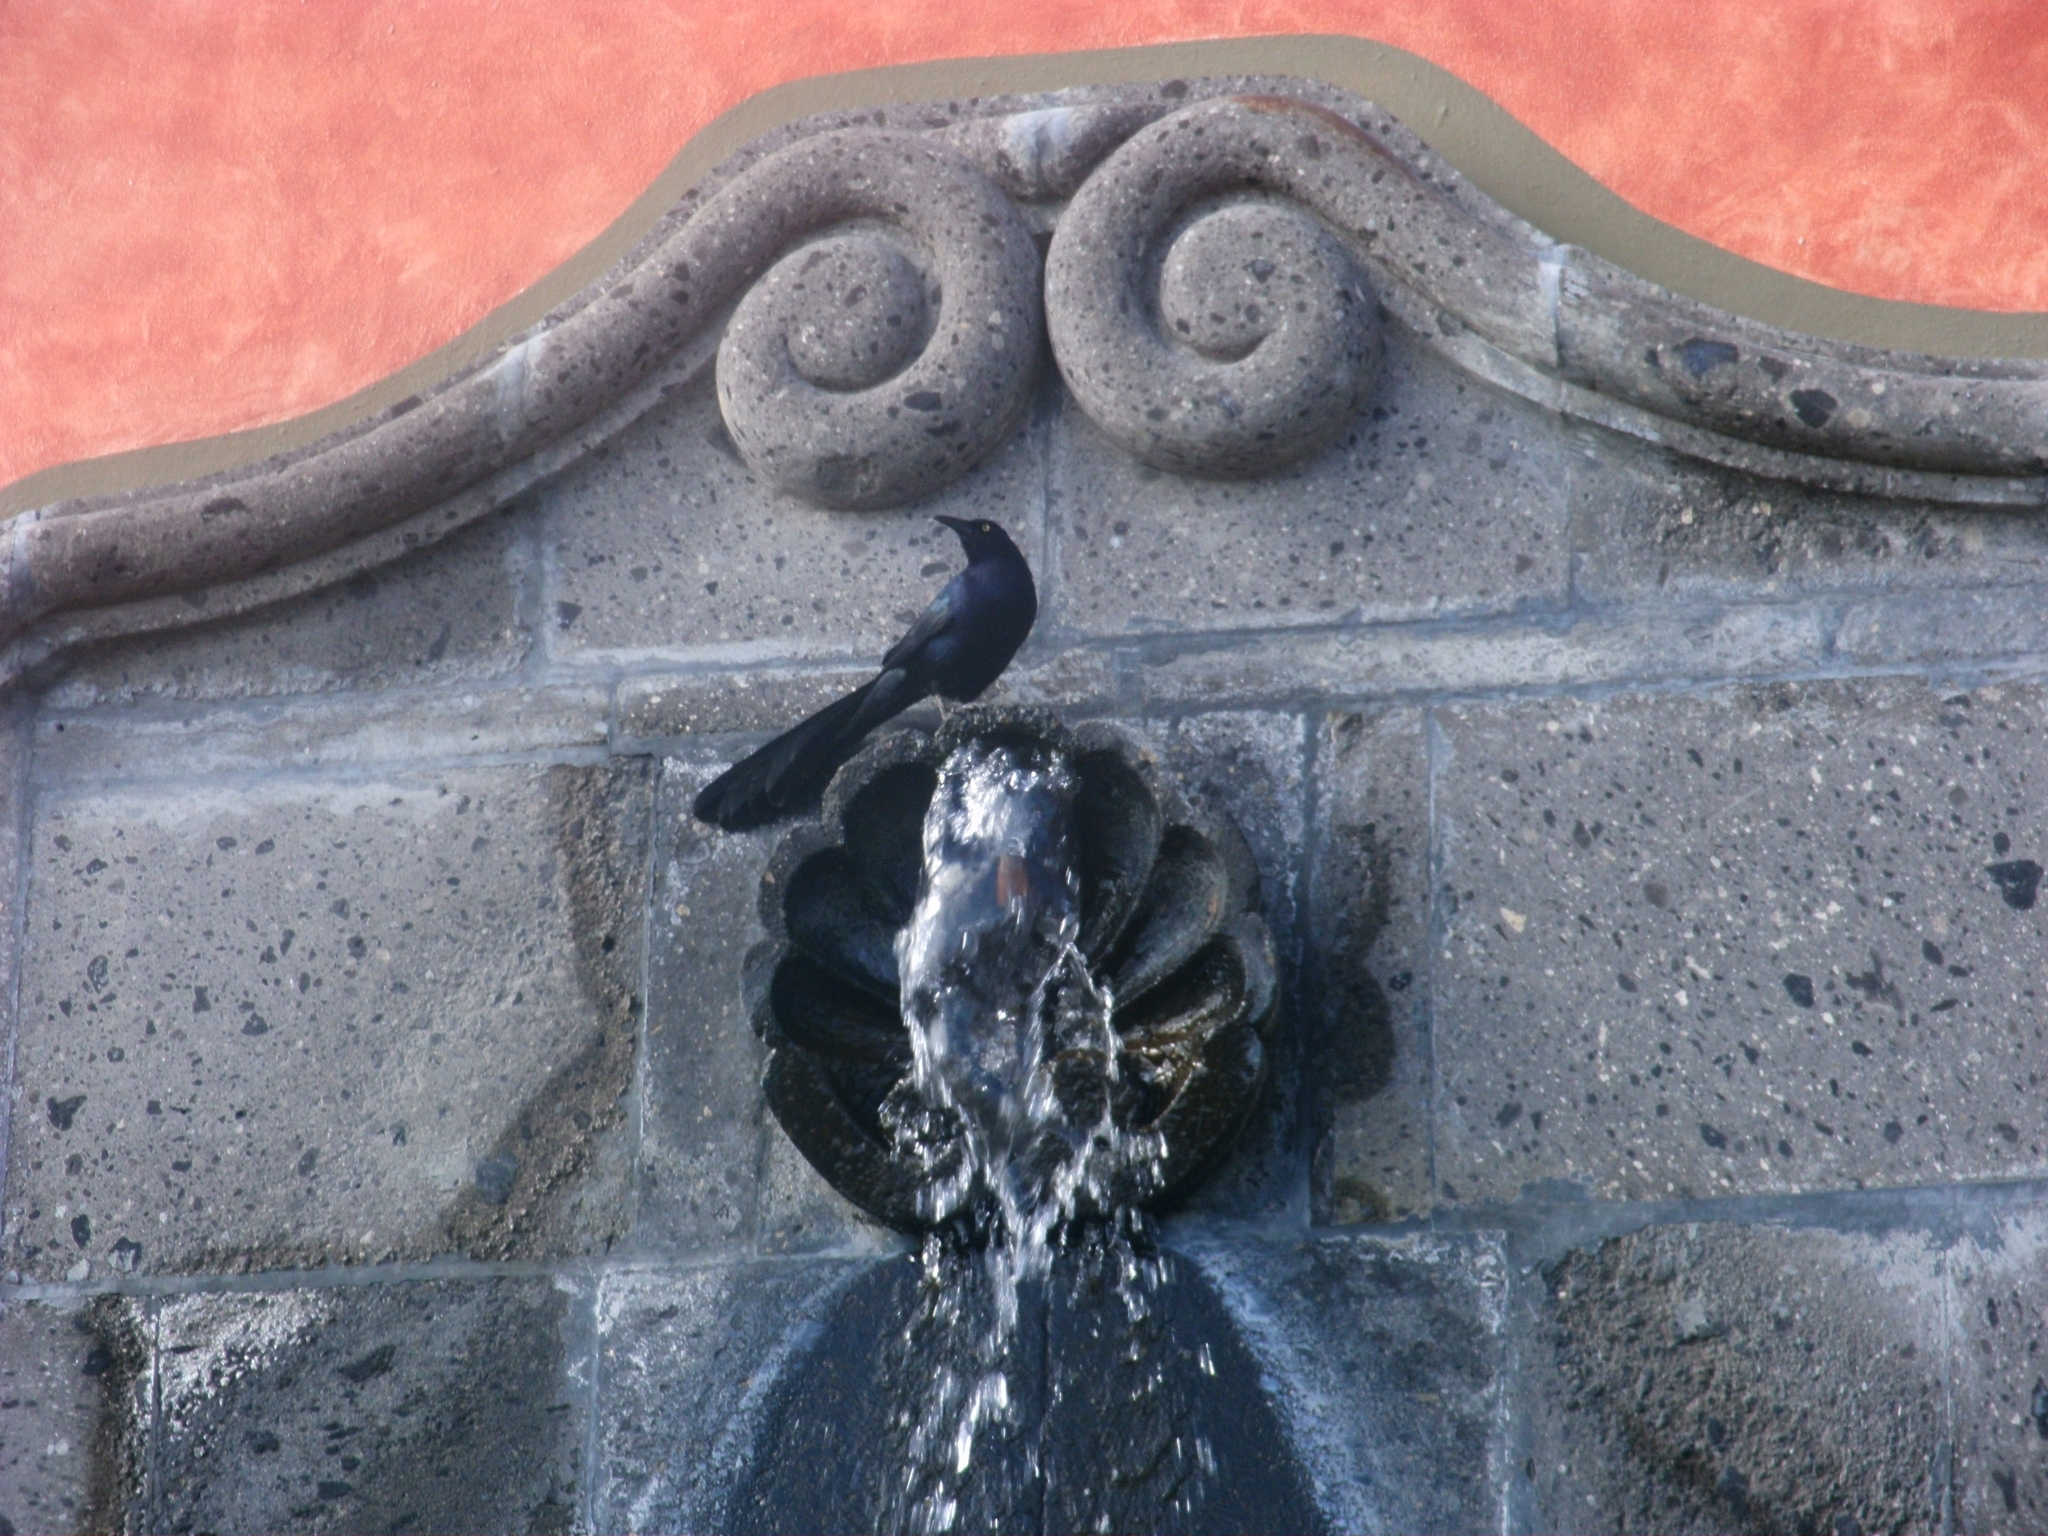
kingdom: Animalia
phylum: Chordata
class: Aves
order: Passeriformes
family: Icteridae
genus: Quiscalus
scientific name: Quiscalus mexicanus
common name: Great-tailed grackle
